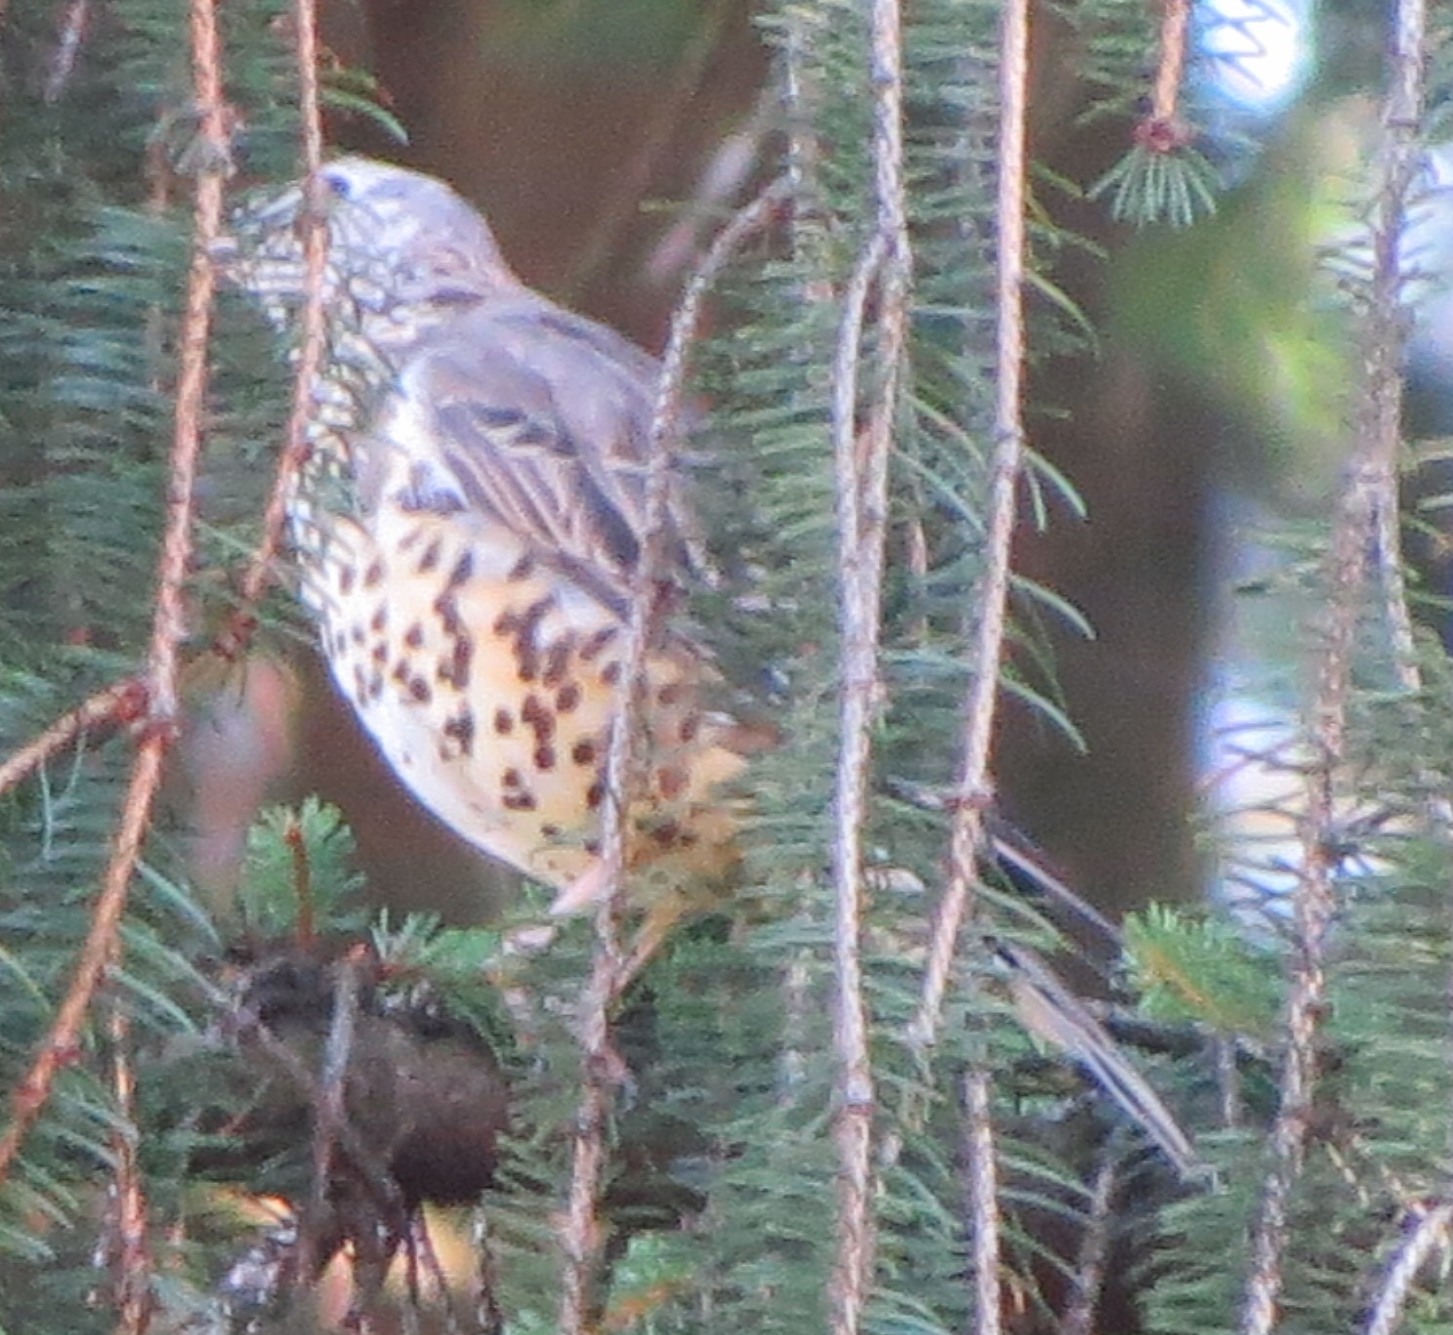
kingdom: Animalia
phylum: Chordata
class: Aves
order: Passeriformes
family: Turdidae
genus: Turdus
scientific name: Turdus viscivorus
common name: Mistle thrush
